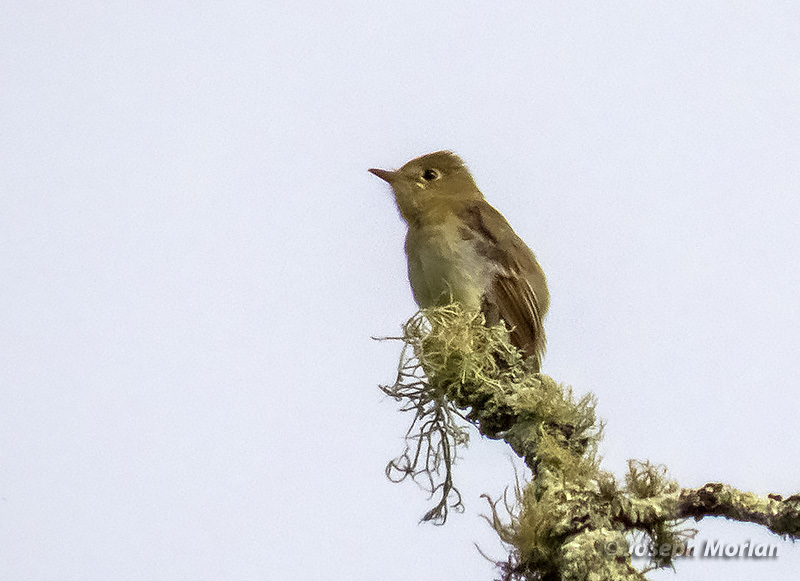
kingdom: Animalia
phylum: Chordata
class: Aves
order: Passeriformes
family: Tyrannidae
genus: Empidonax
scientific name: Empidonax difficilis
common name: Pacific-slope flycatcher
